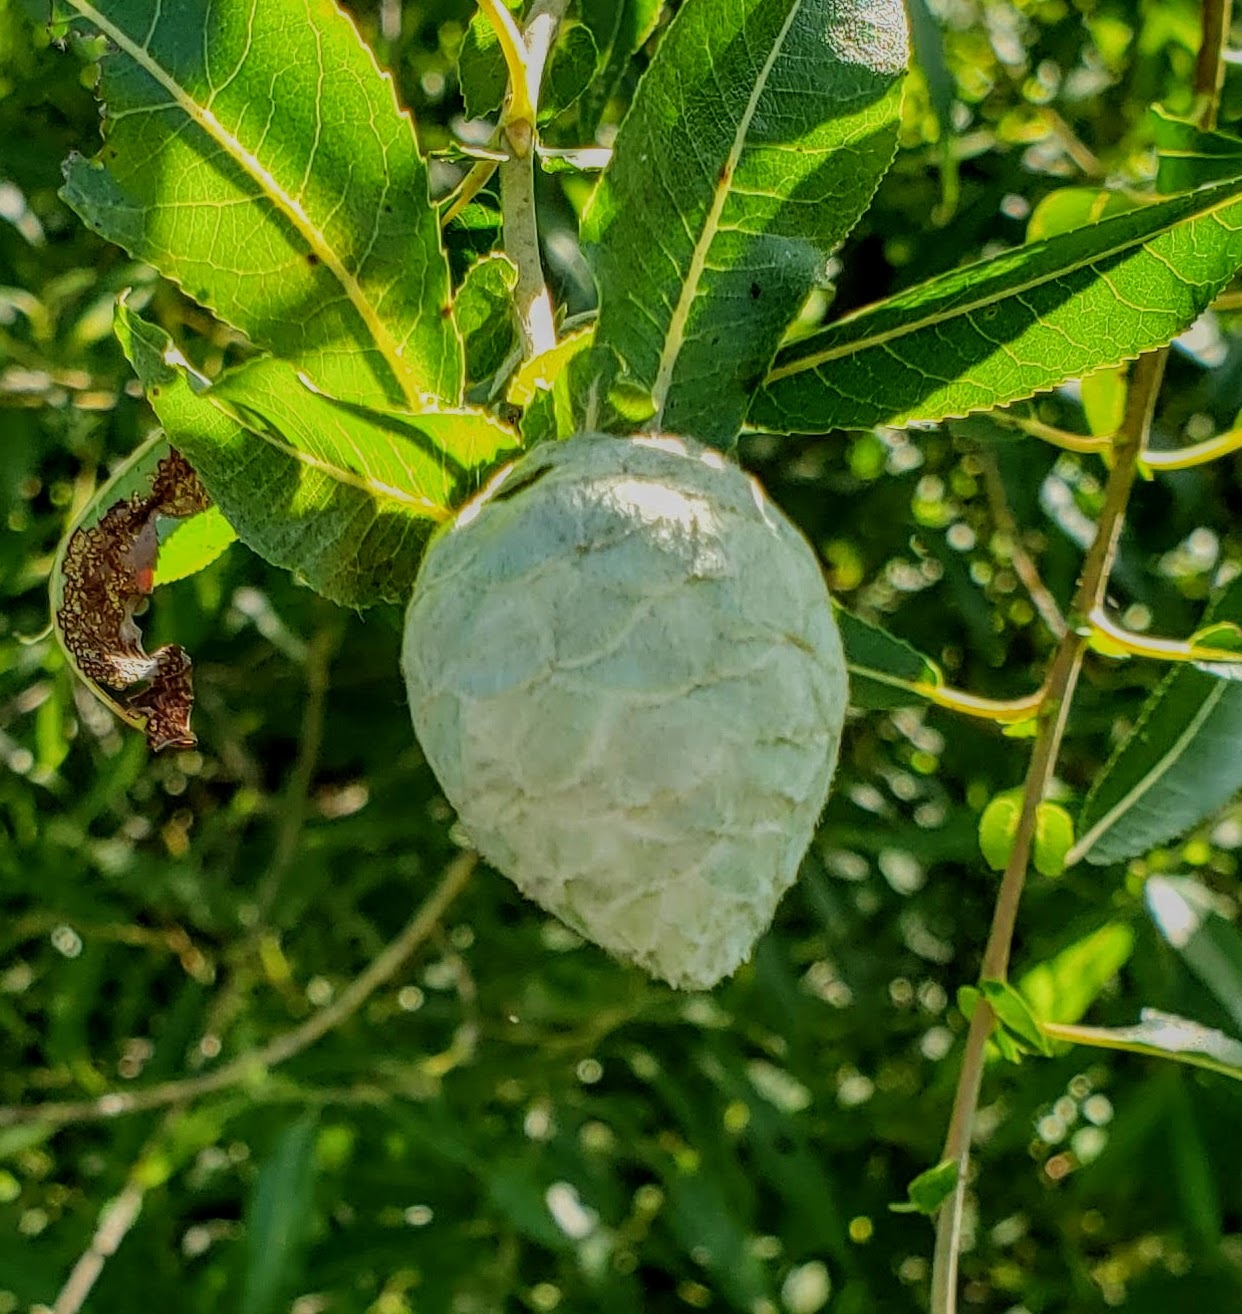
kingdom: Animalia
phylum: Arthropoda
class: Insecta
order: Diptera
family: Cecidomyiidae
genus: Rabdophaga
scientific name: Rabdophaga strobiloides
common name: Willow pinecone gall midge
